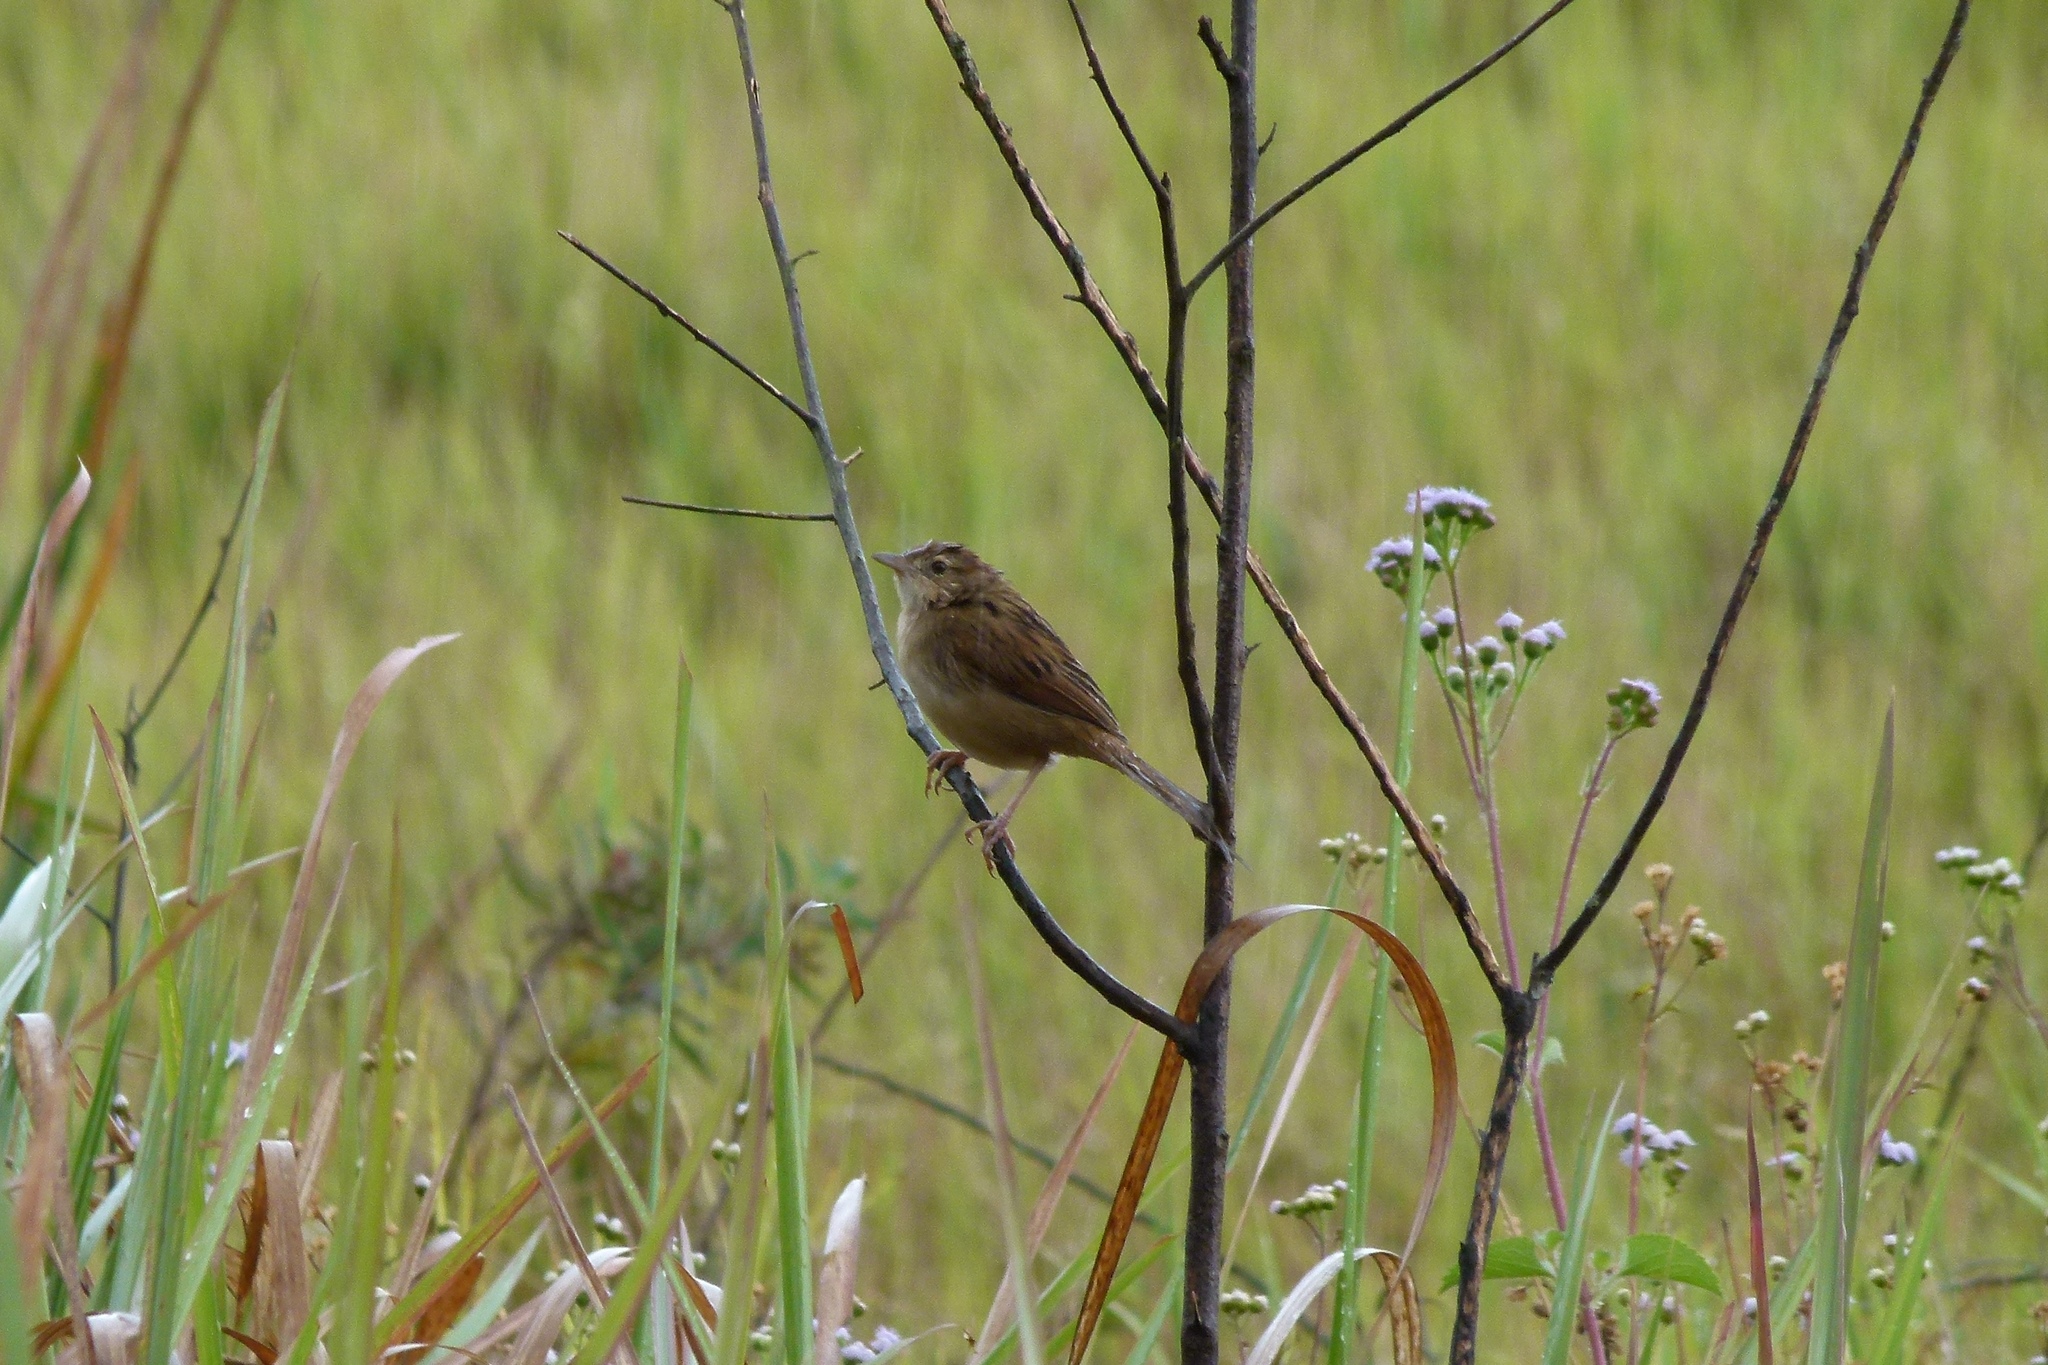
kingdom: Animalia
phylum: Chordata
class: Aves
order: Passeriformes
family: Locustellidae
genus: Megalurus
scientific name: Megalurus timoriensis
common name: Tawny grassbird
